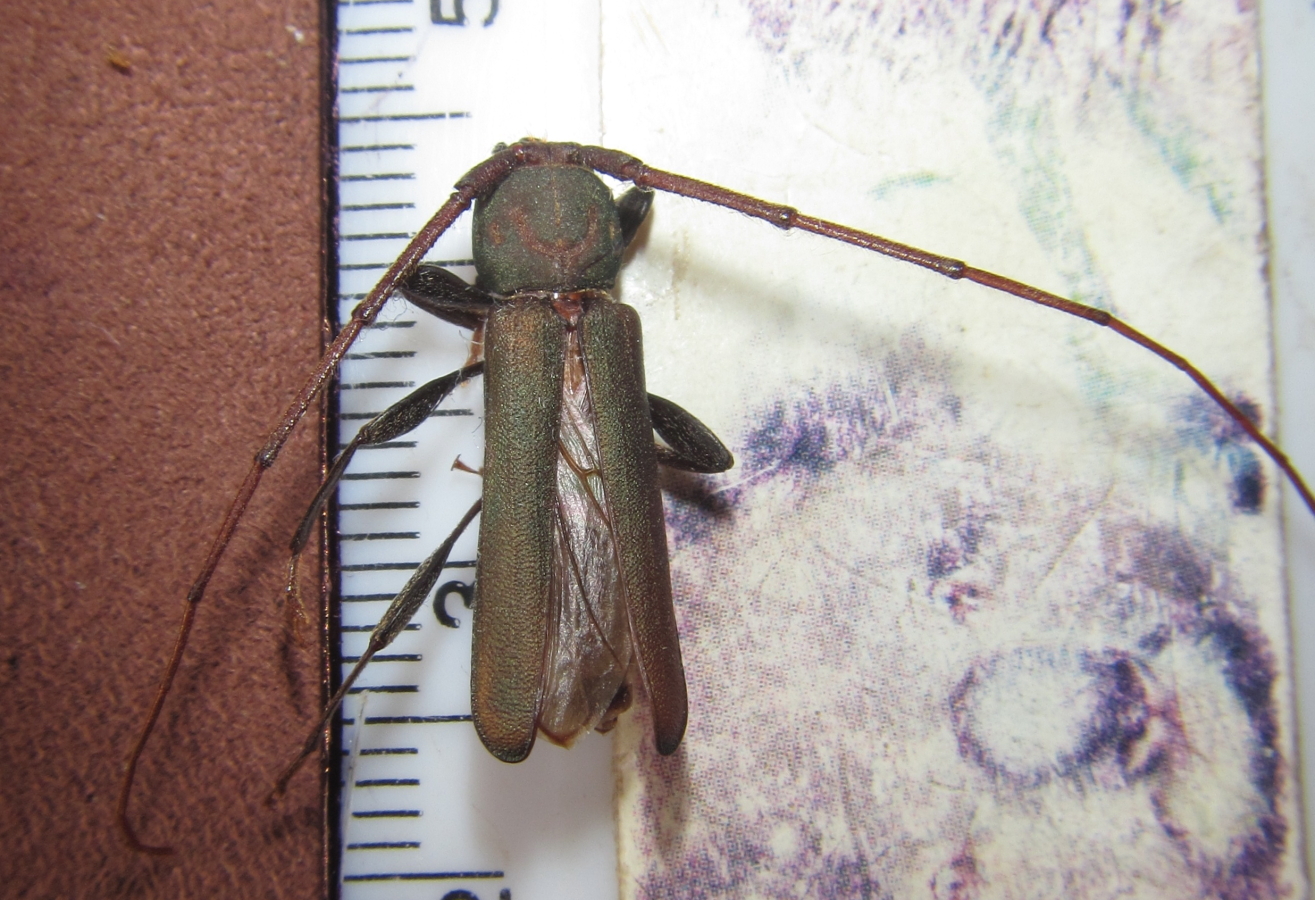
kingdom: Animalia
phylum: Arthropoda
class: Insecta
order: Coleoptera
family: Cerambycidae
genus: Xystrocera
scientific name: Xystrocera erosa
